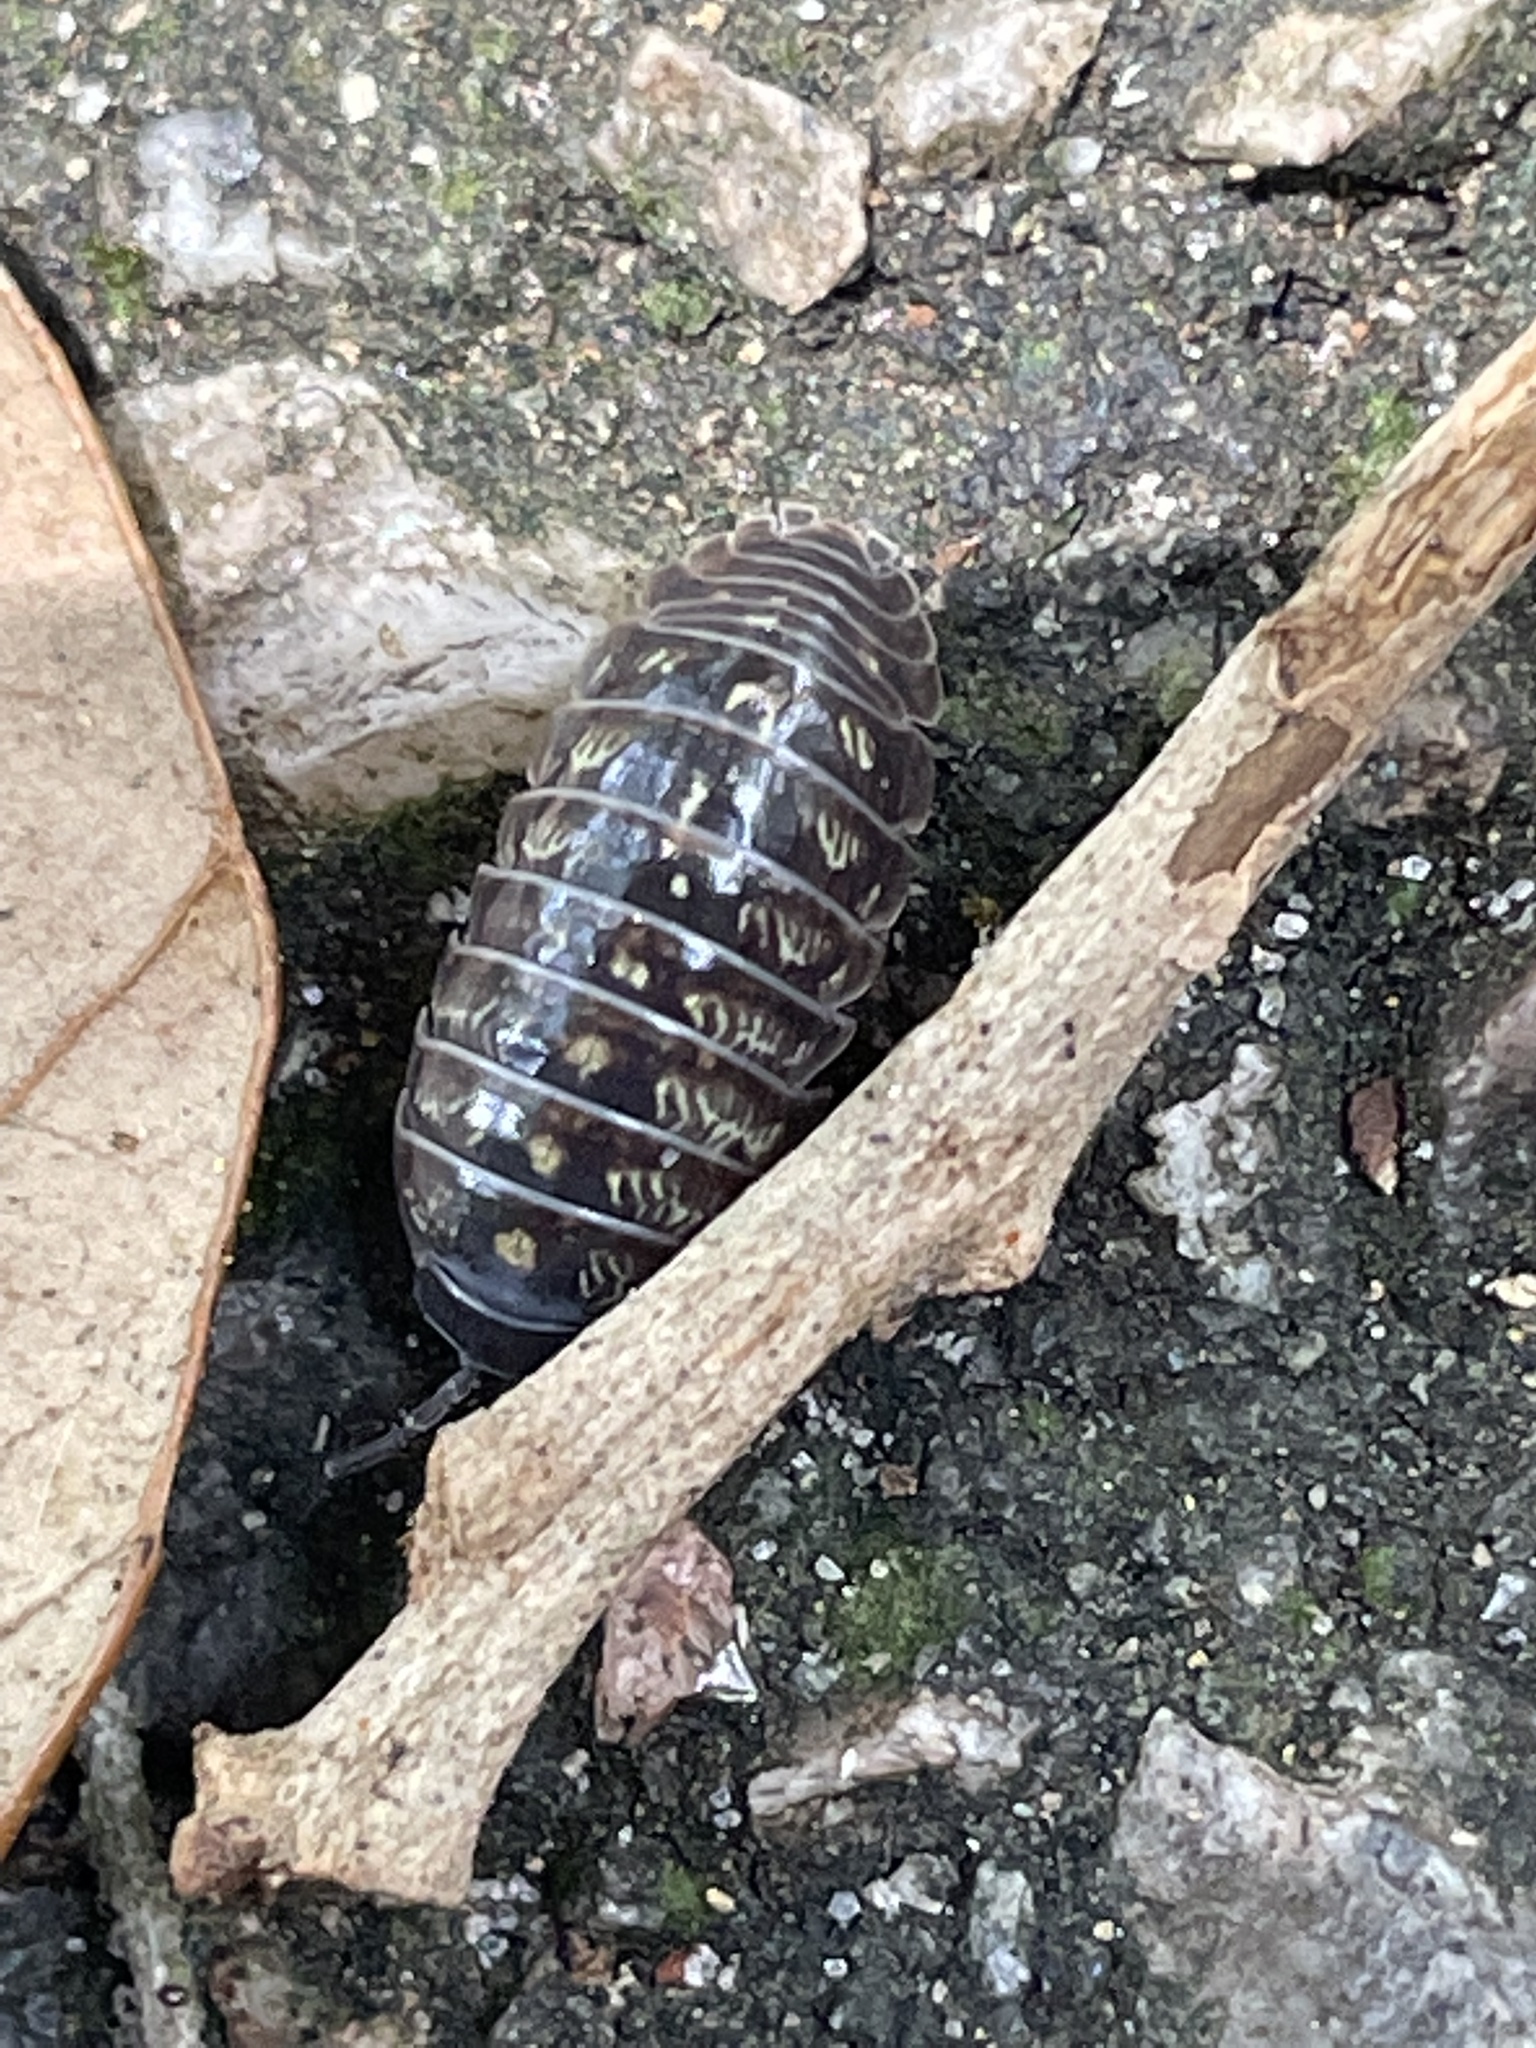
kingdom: Animalia
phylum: Arthropoda
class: Malacostraca
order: Isopoda
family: Armadillidiidae
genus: Armadillidium
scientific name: Armadillidium vulgare
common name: Common pill woodlouse
